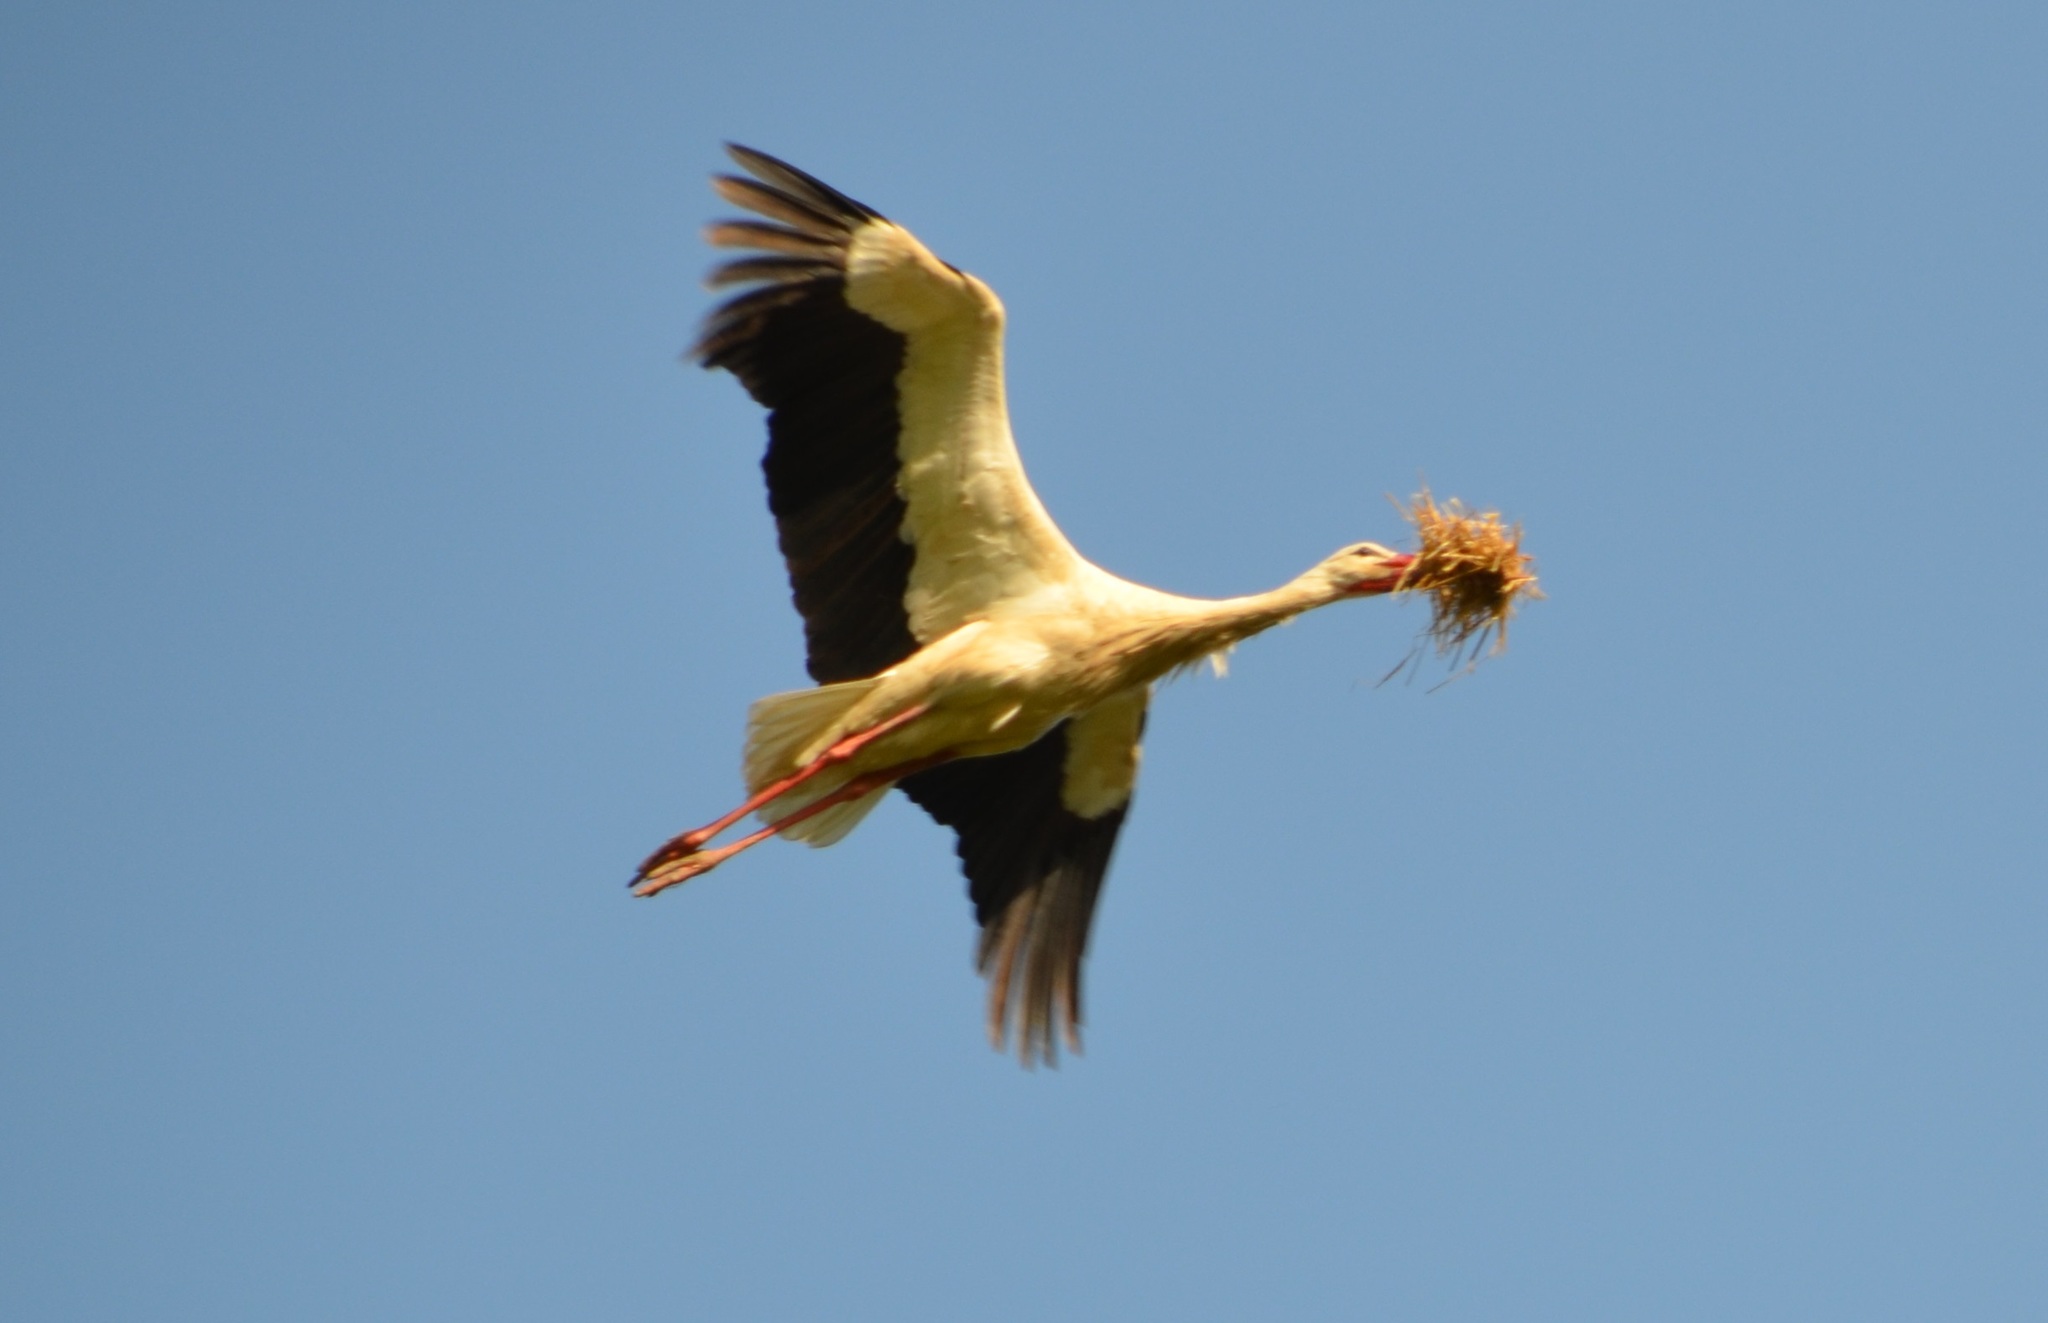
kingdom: Animalia
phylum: Chordata
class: Aves
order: Ciconiiformes
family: Ciconiidae
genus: Ciconia
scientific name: Ciconia ciconia
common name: White stork
